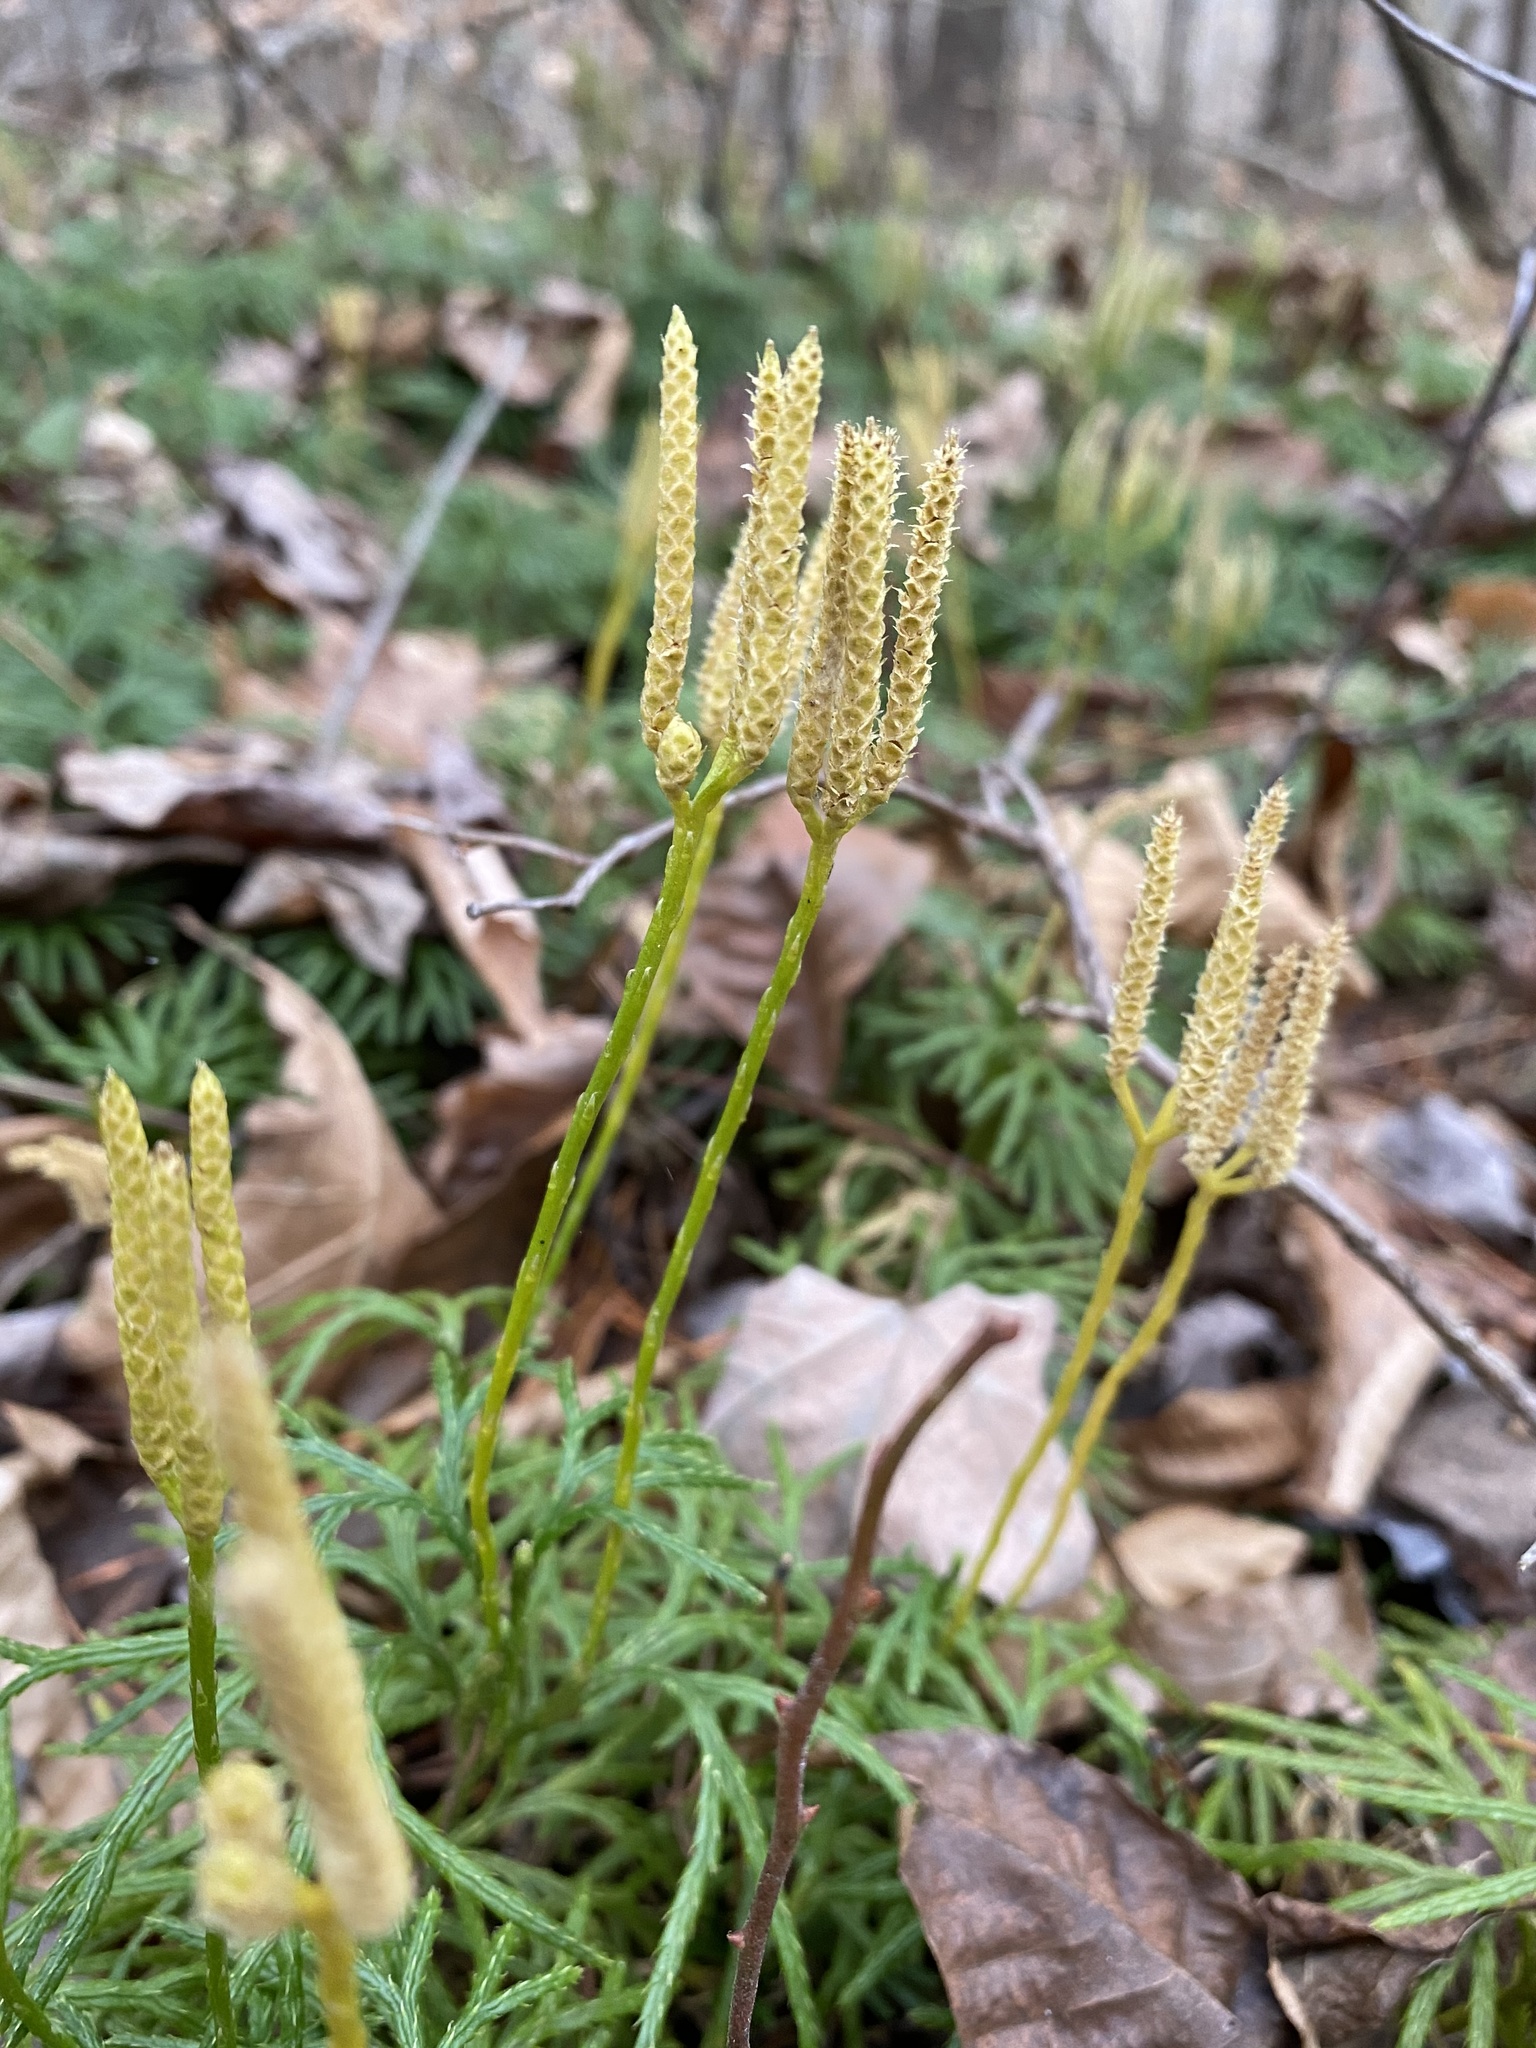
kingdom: Plantae
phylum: Tracheophyta
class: Lycopodiopsida
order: Lycopodiales
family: Lycopodiaceae
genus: Diphasiastrum
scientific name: Diphasiastrum digitatum
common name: Southern running-pine
